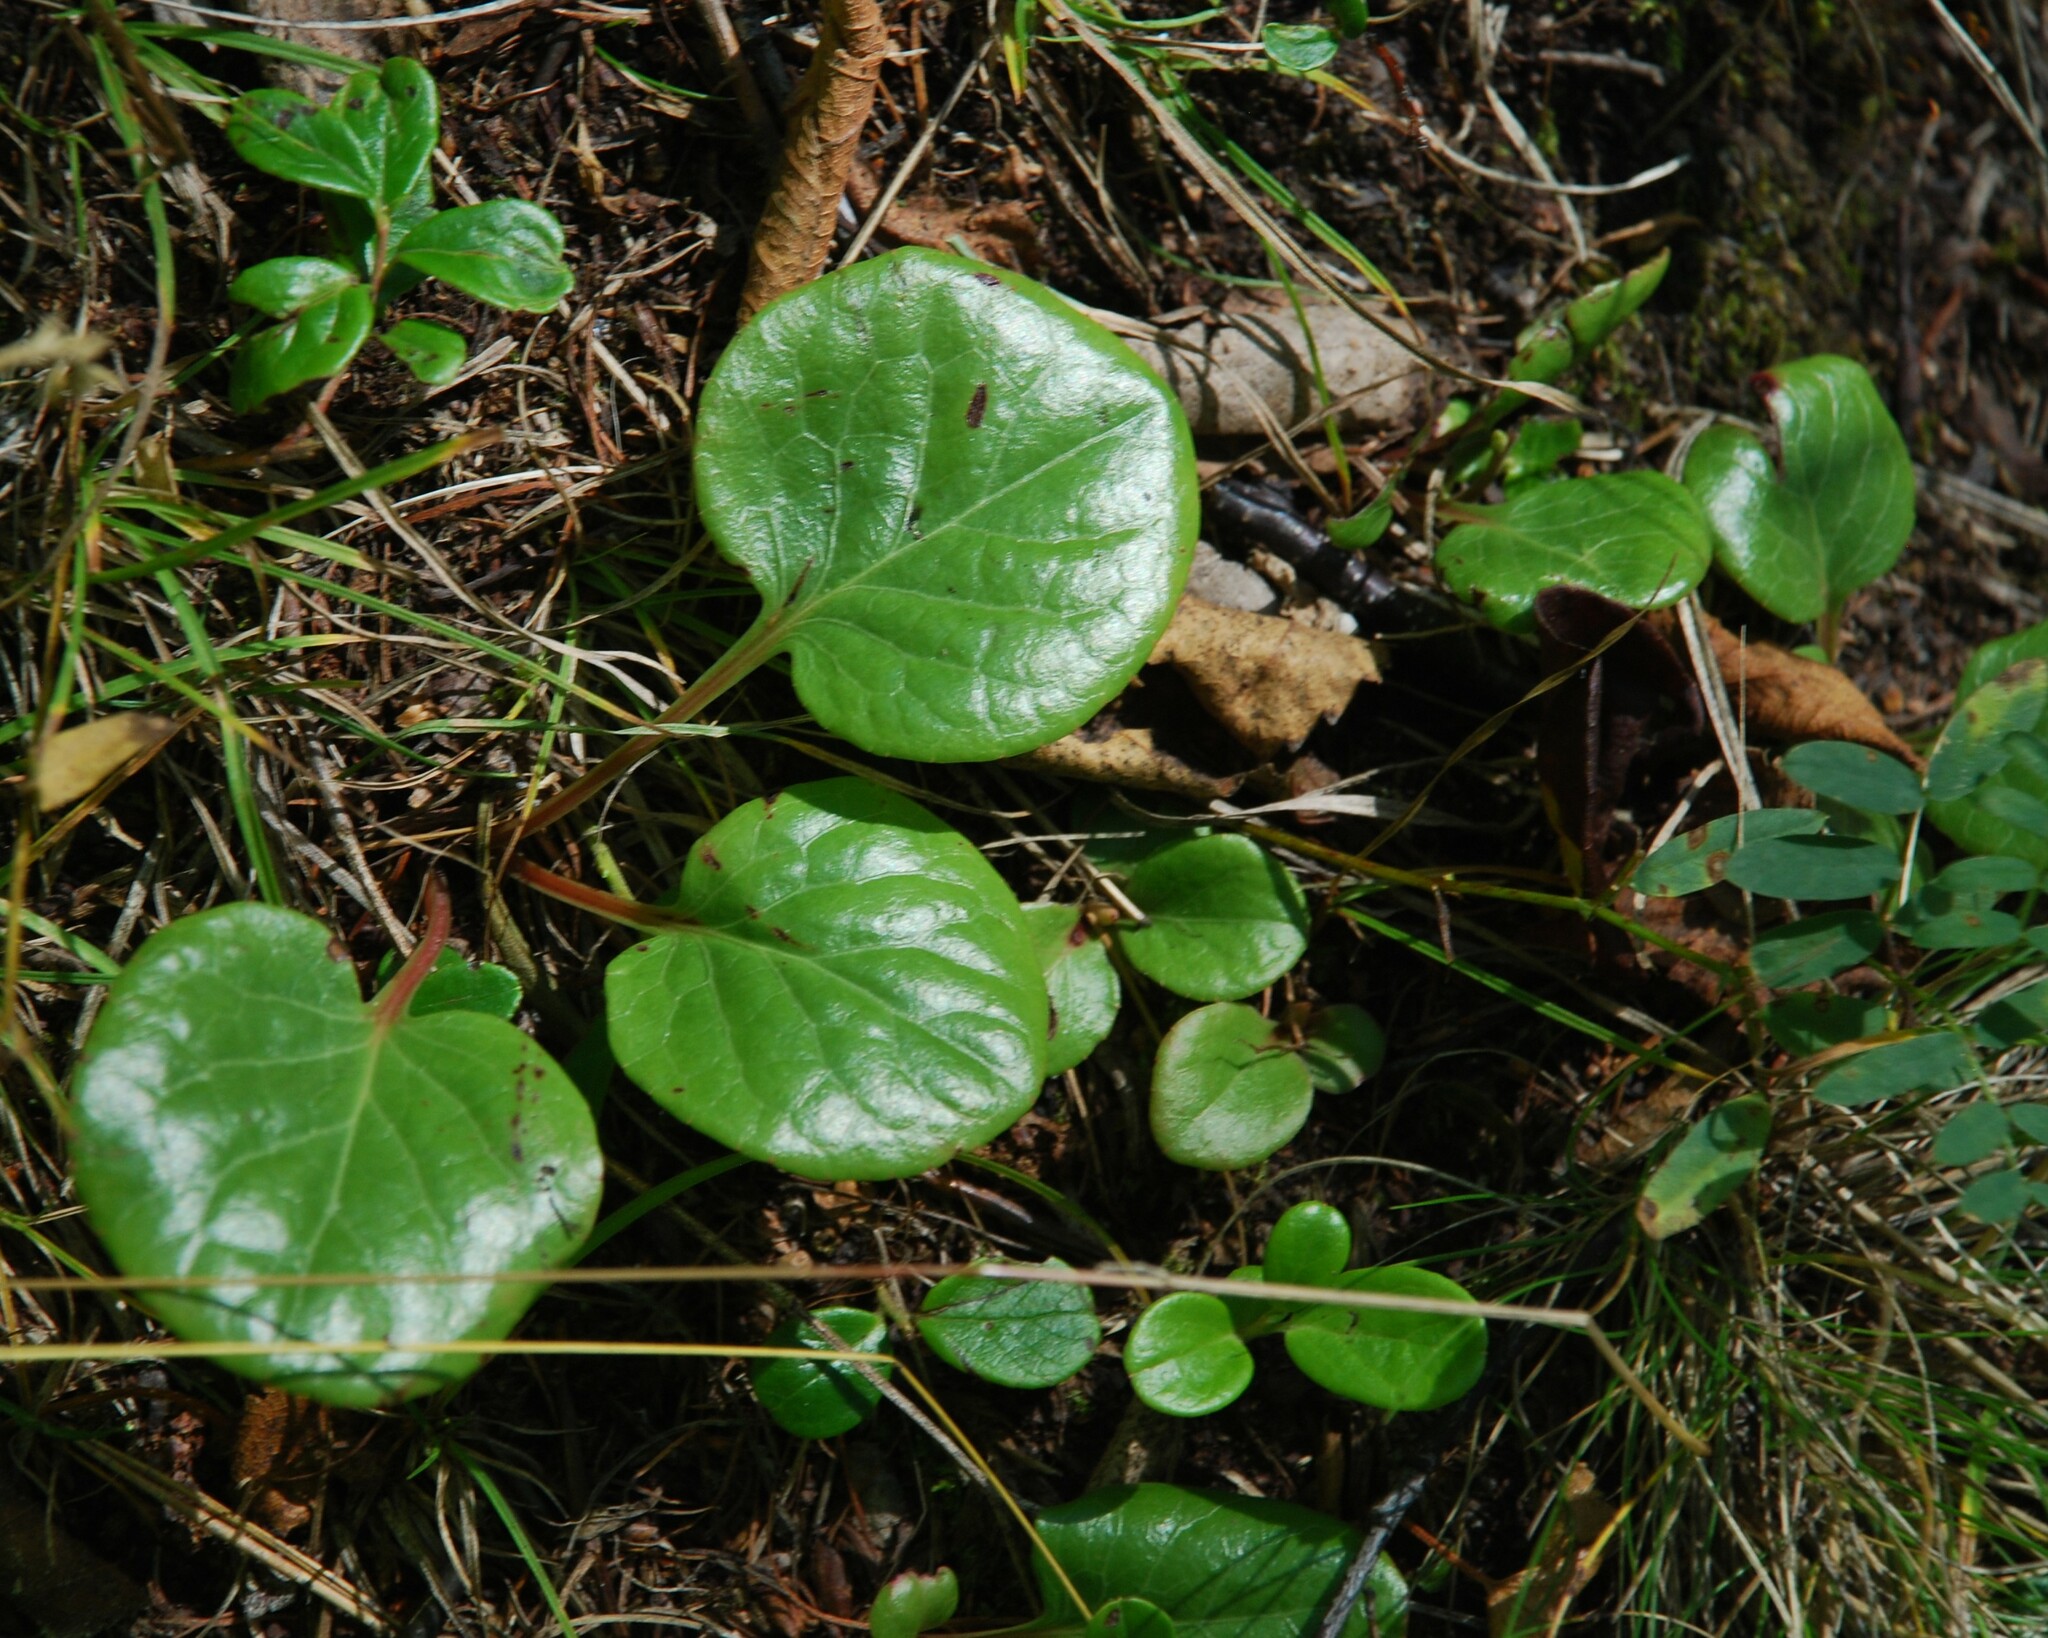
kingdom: Plantae
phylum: Tracheophyta
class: Magnoliopsida
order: Ericales
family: Ericaceae
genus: Pyrola
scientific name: Pyrola asarifolia
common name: Bog wintergreen
